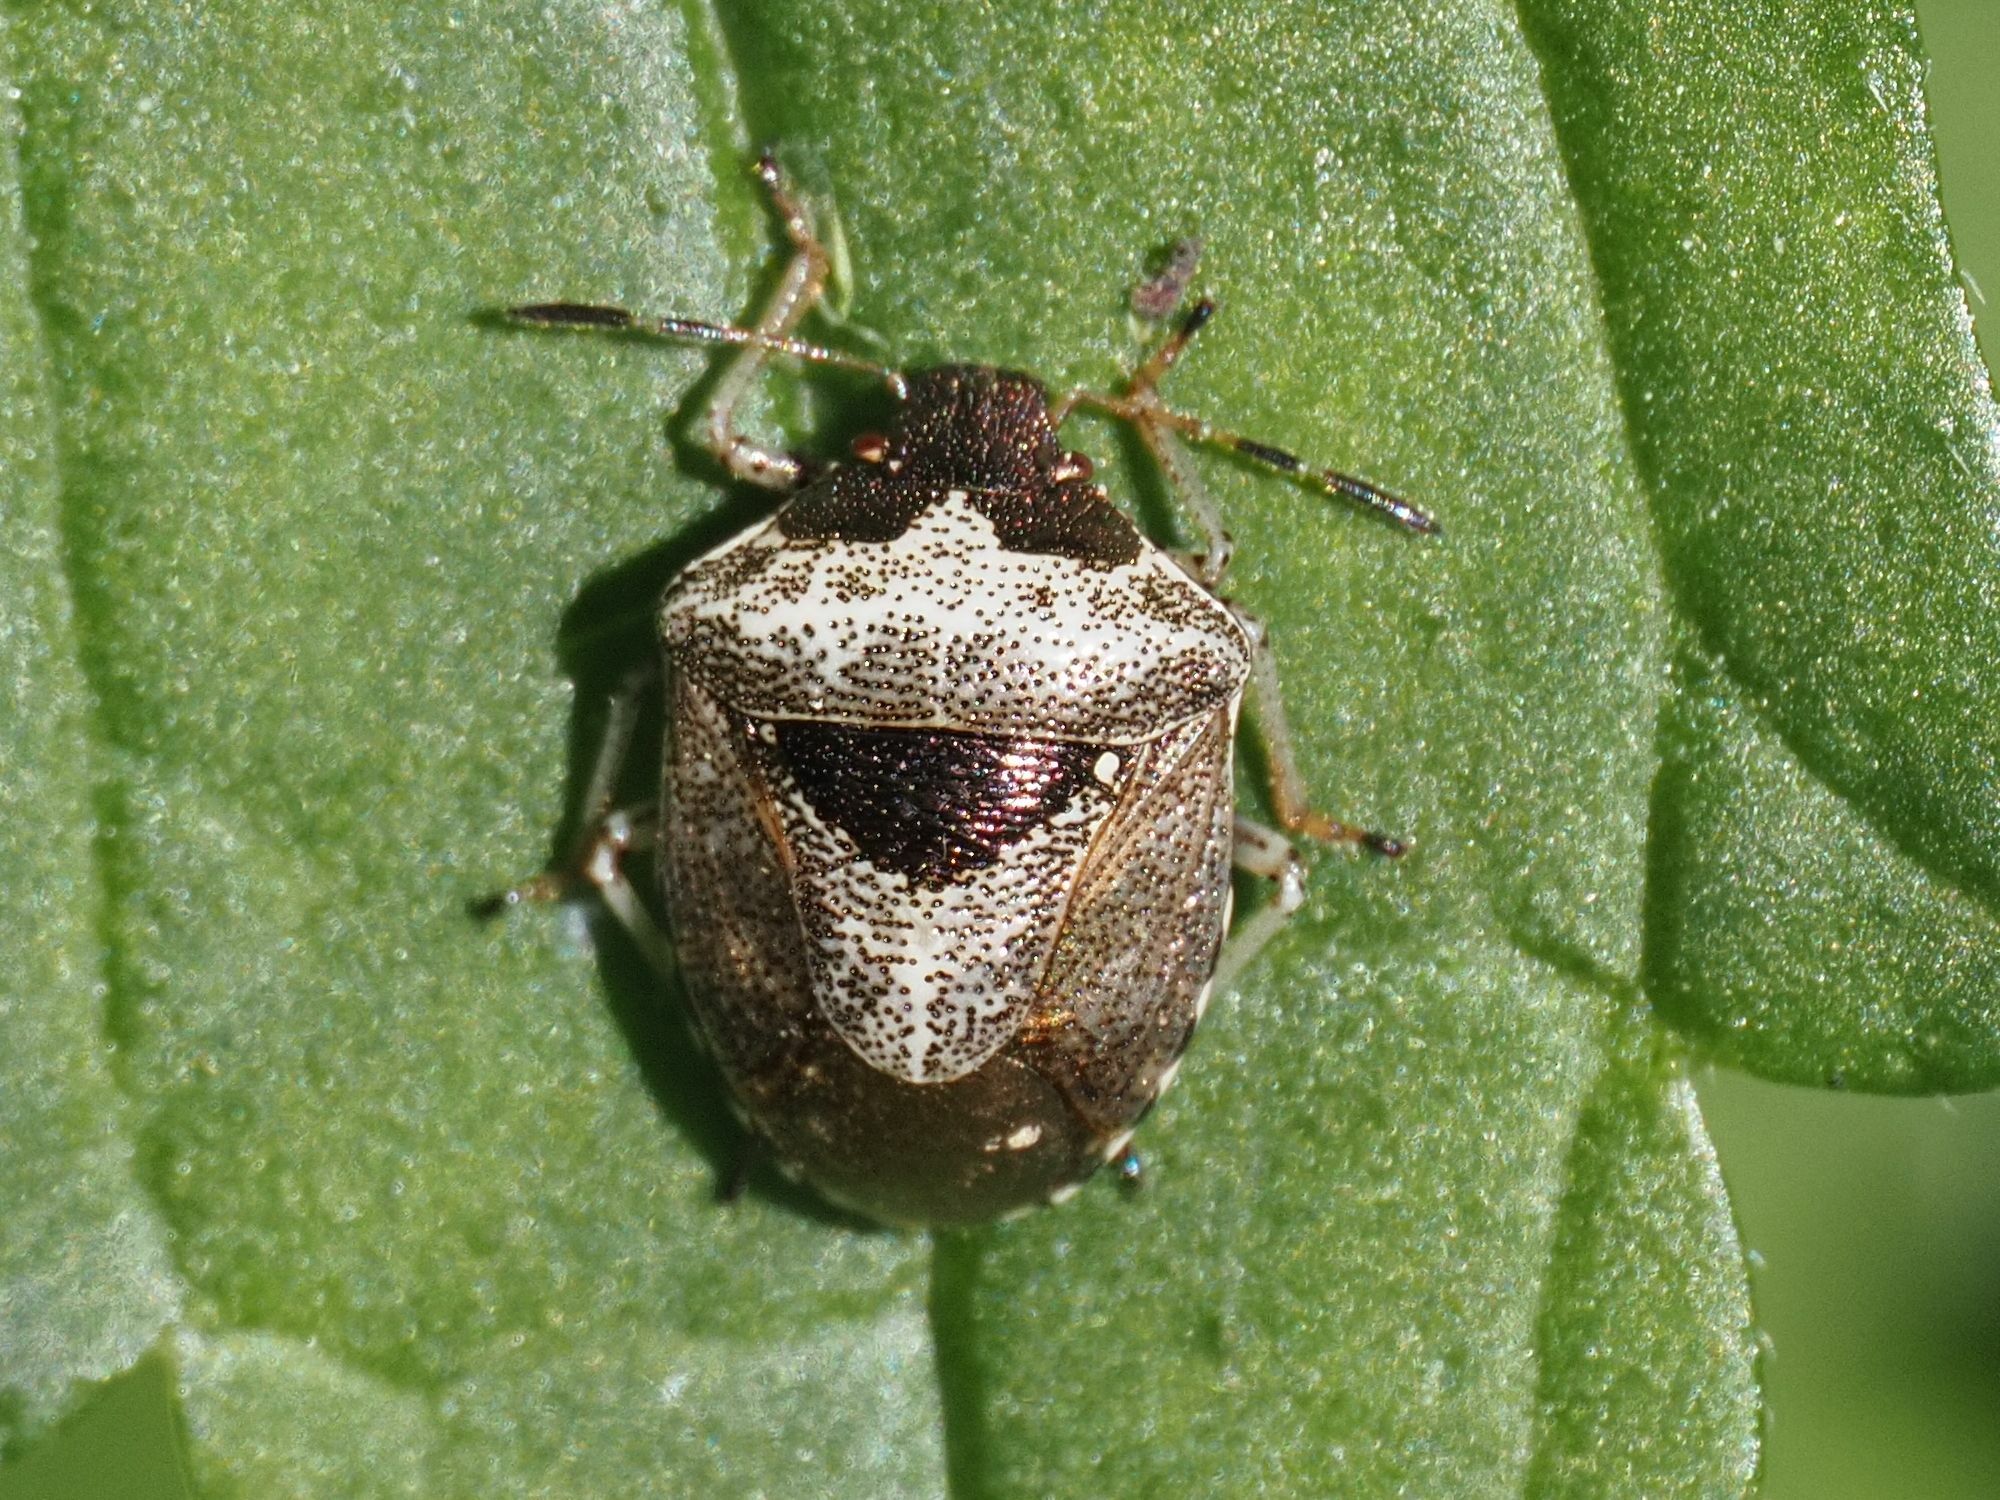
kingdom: Animalia
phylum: Arthropoda
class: Insecta
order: Hemiptera
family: Pentatomidae
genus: Eysarcoris
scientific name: Eysarcoris venustissimus
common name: Woundwort shieldbug
